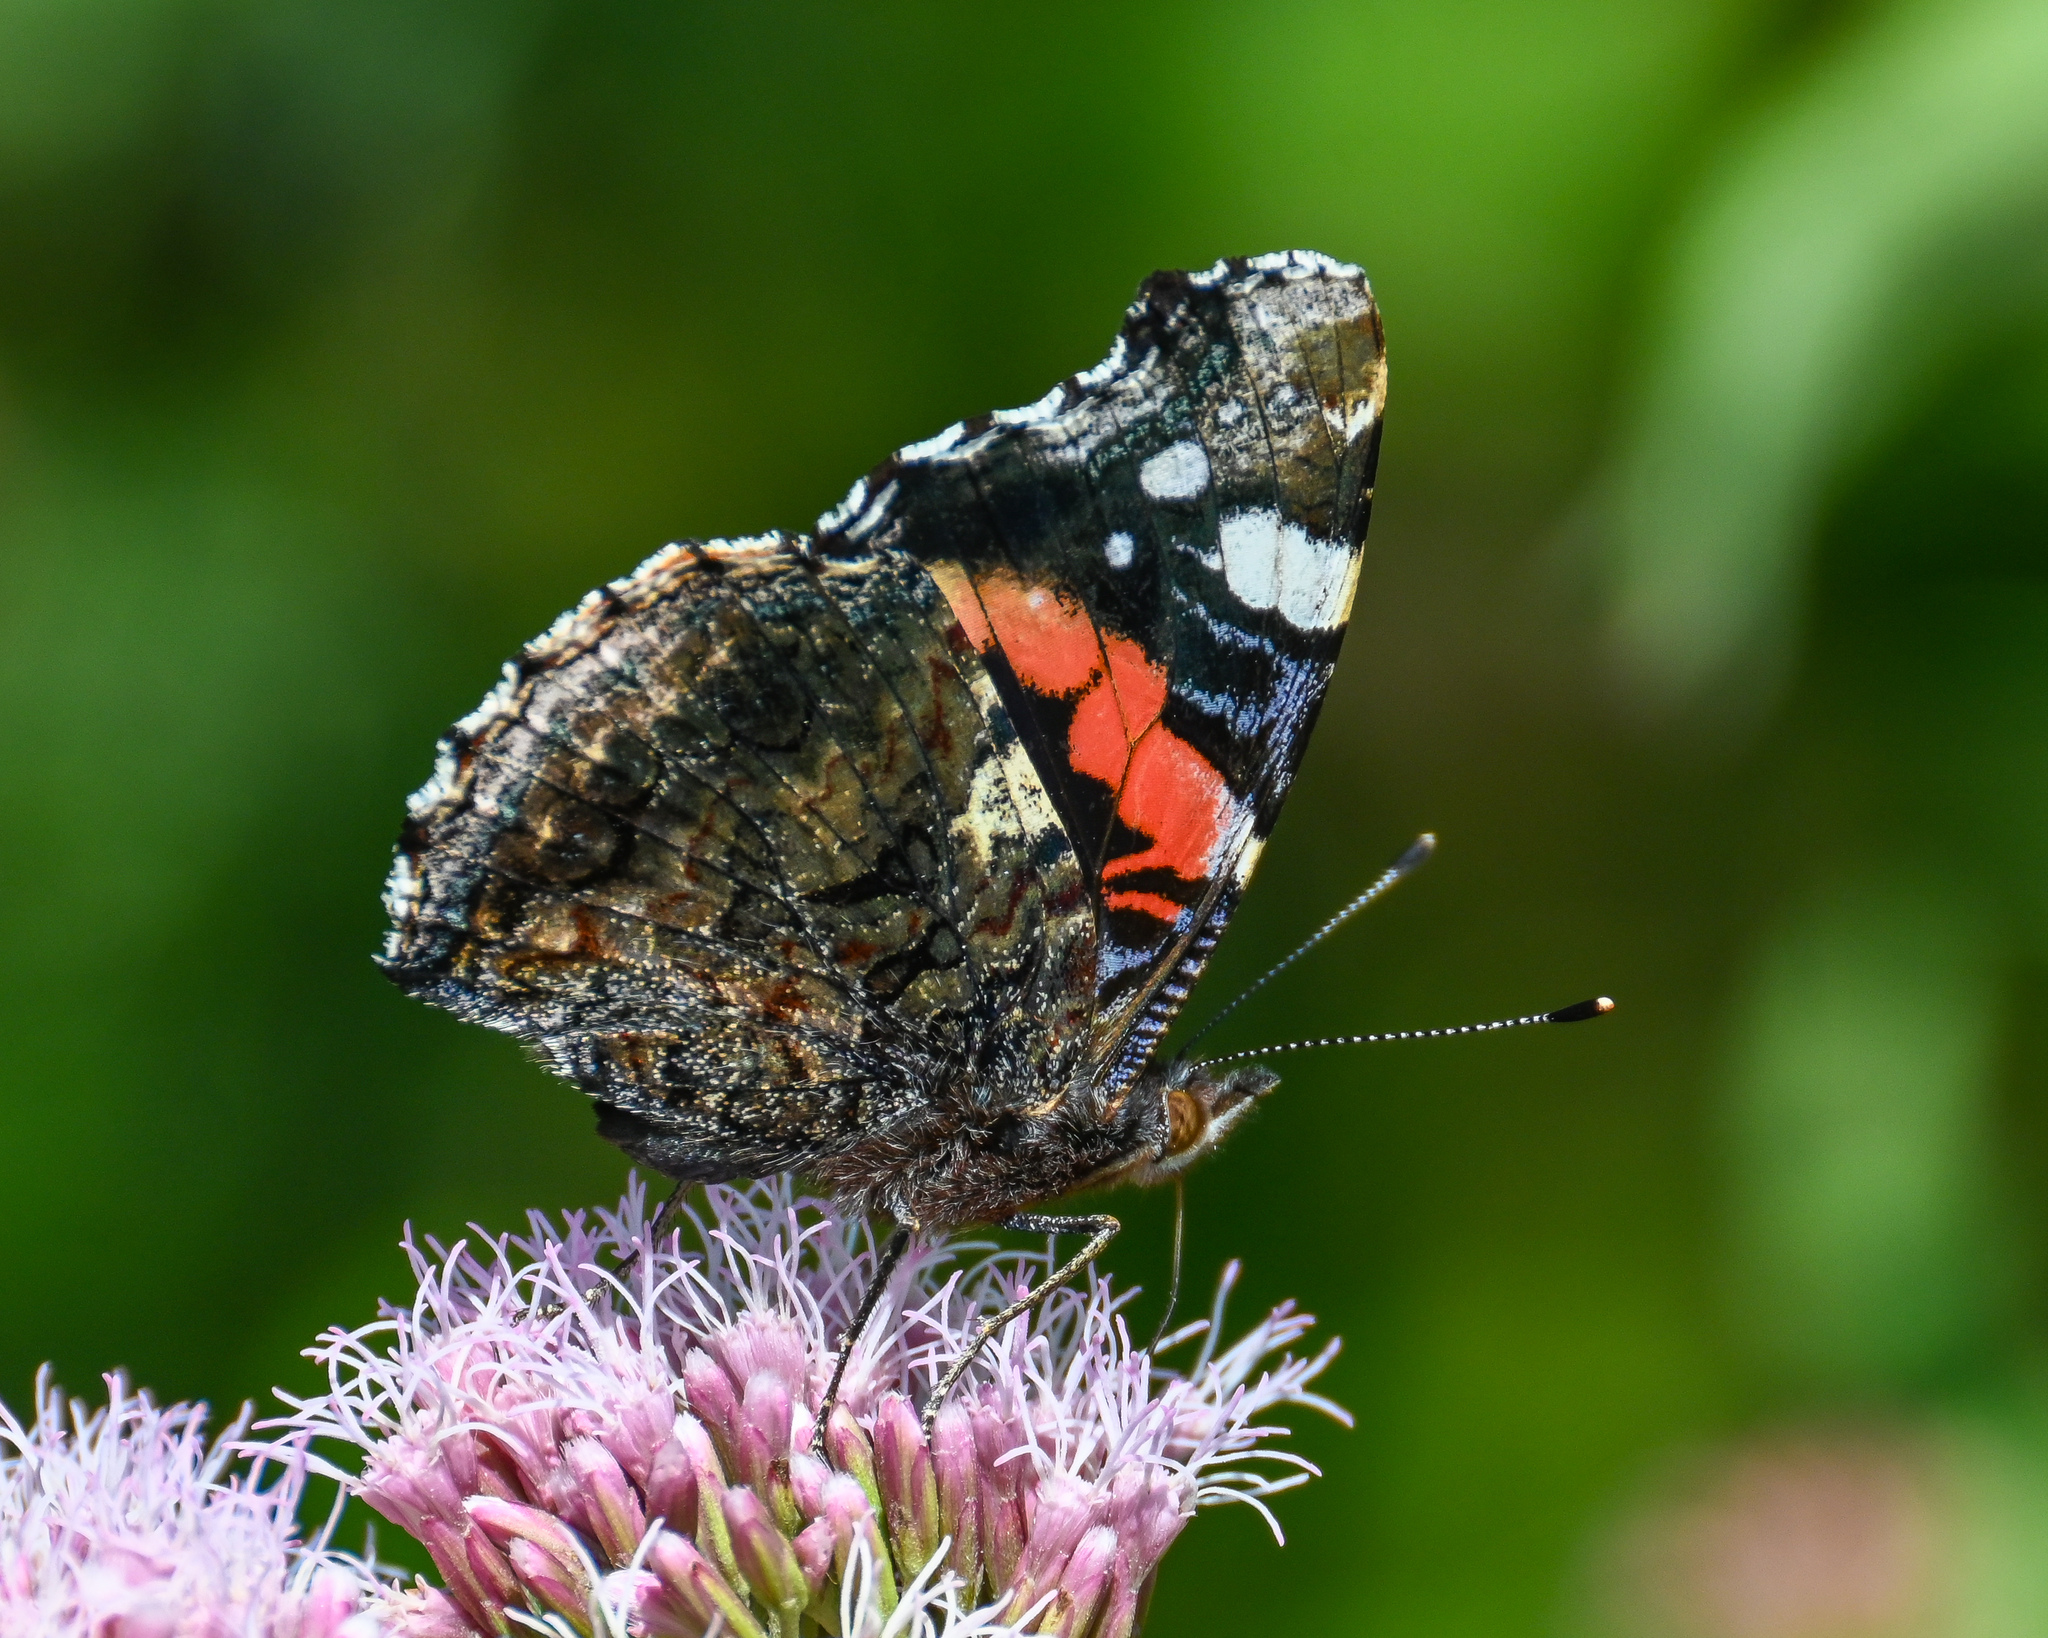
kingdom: Animalia
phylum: Arthropoda
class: Insecta
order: Lepidoptera
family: Nymphalidae
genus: Vanessa
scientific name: Vanessa atalanta
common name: Red admiral
